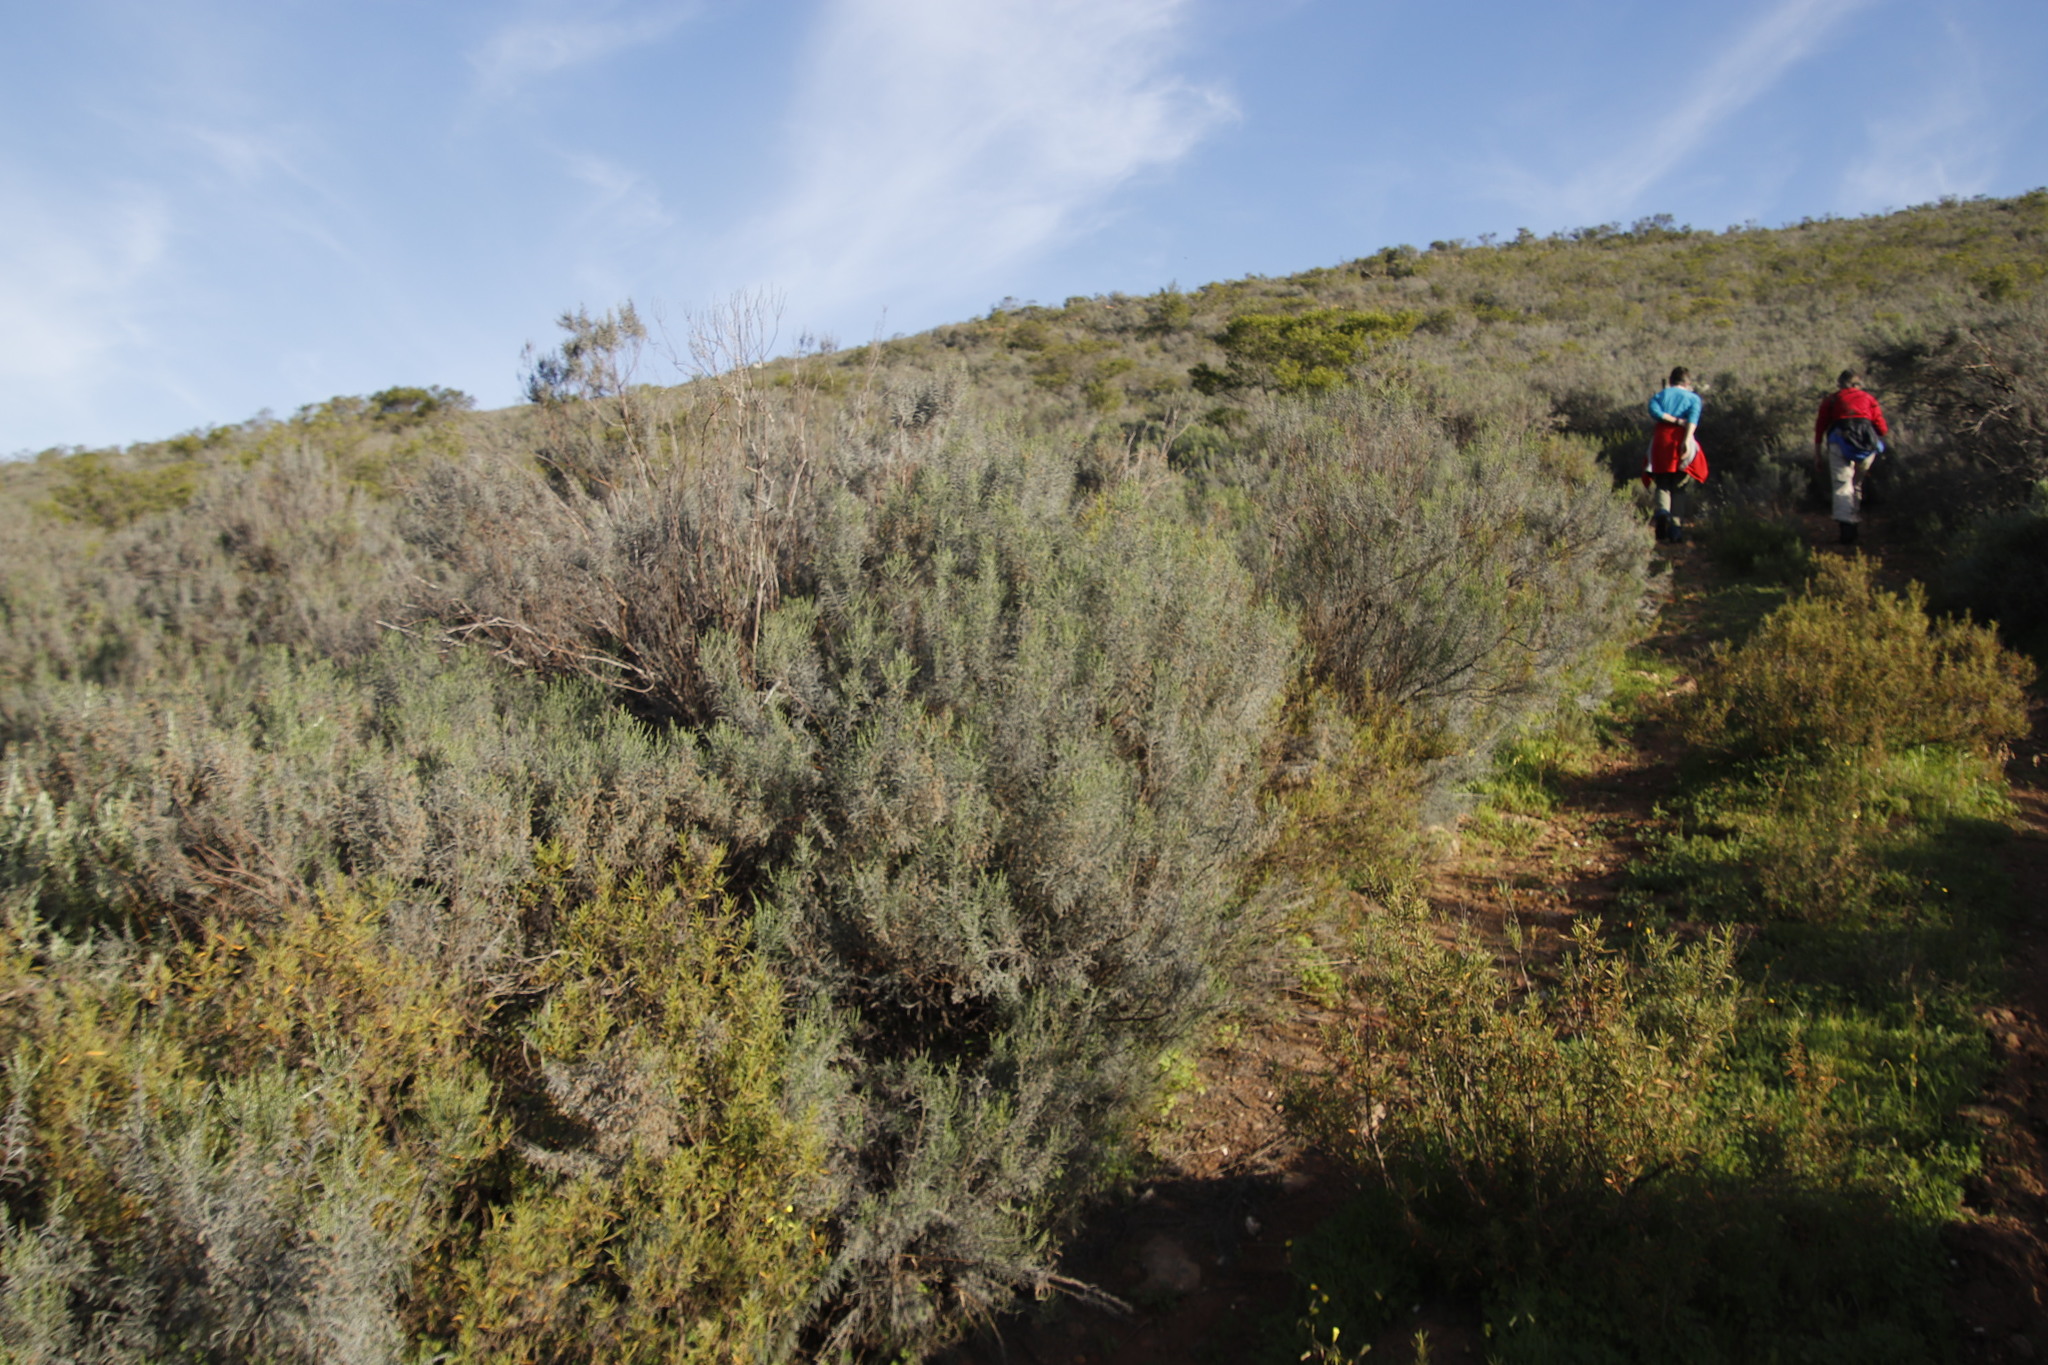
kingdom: Plantae
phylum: Tracheophyta
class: Magnoliopsida
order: Asterales
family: Asteraceae
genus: Dicerothamnus
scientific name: Dicerothamnus rhinocerotis
